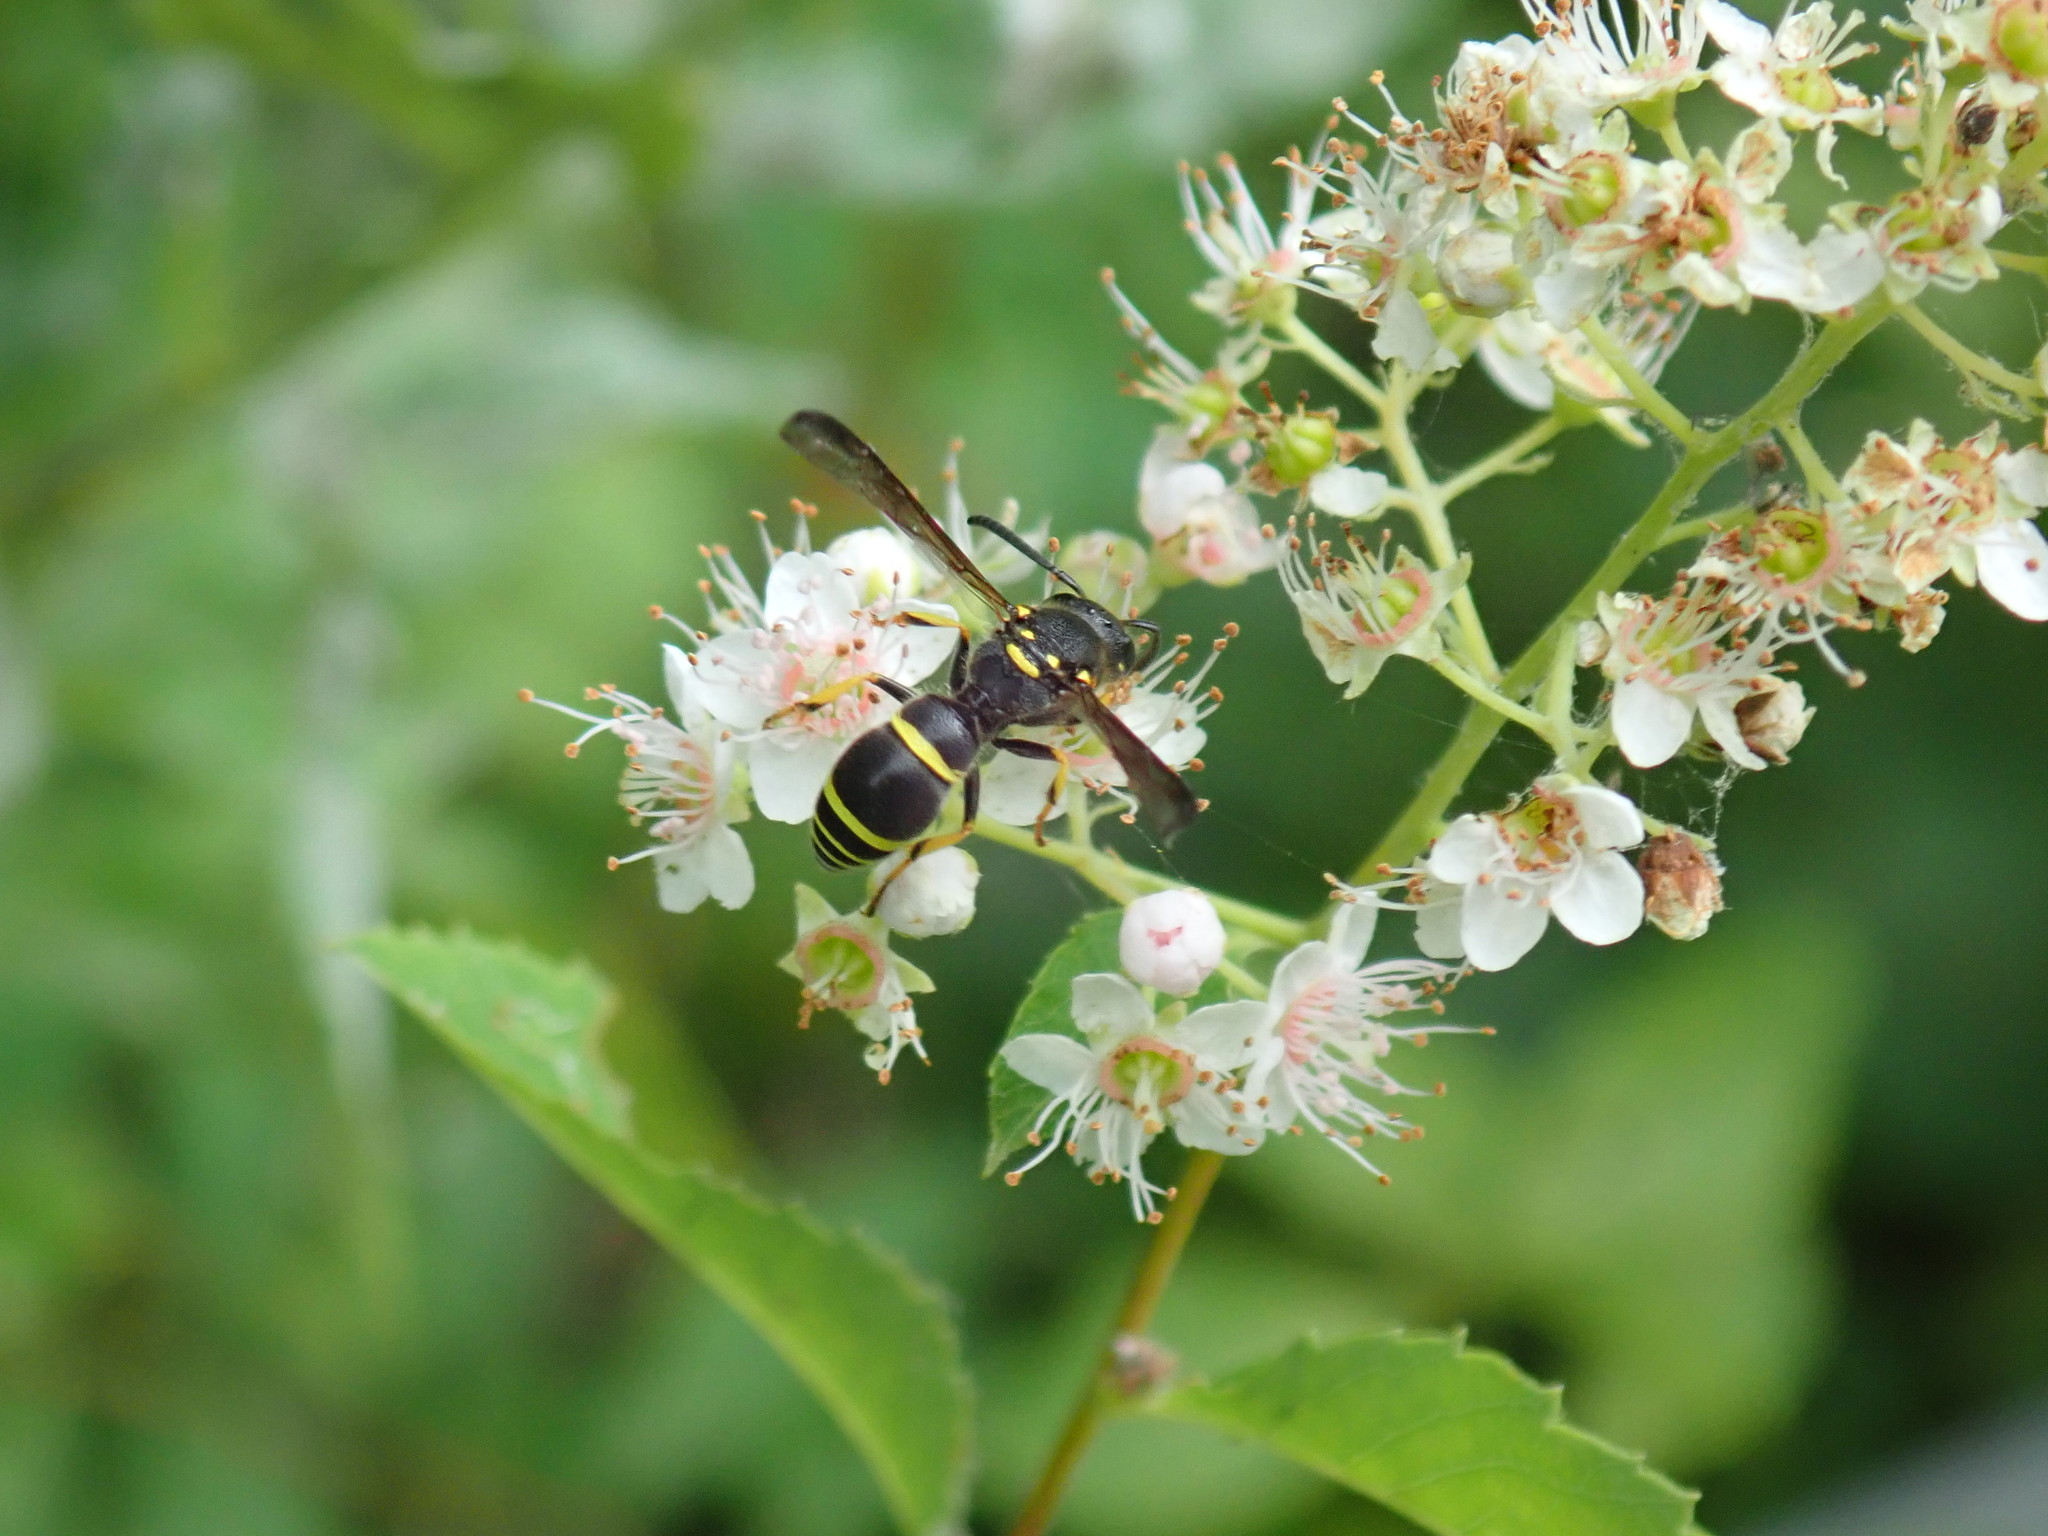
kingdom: Animalia
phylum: Arthropoda
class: Insecta
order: Hymenoptera
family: Vespidae
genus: Ancistrocerus
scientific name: Ancistrocerus adiabatus
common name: Bramble mason wasp
